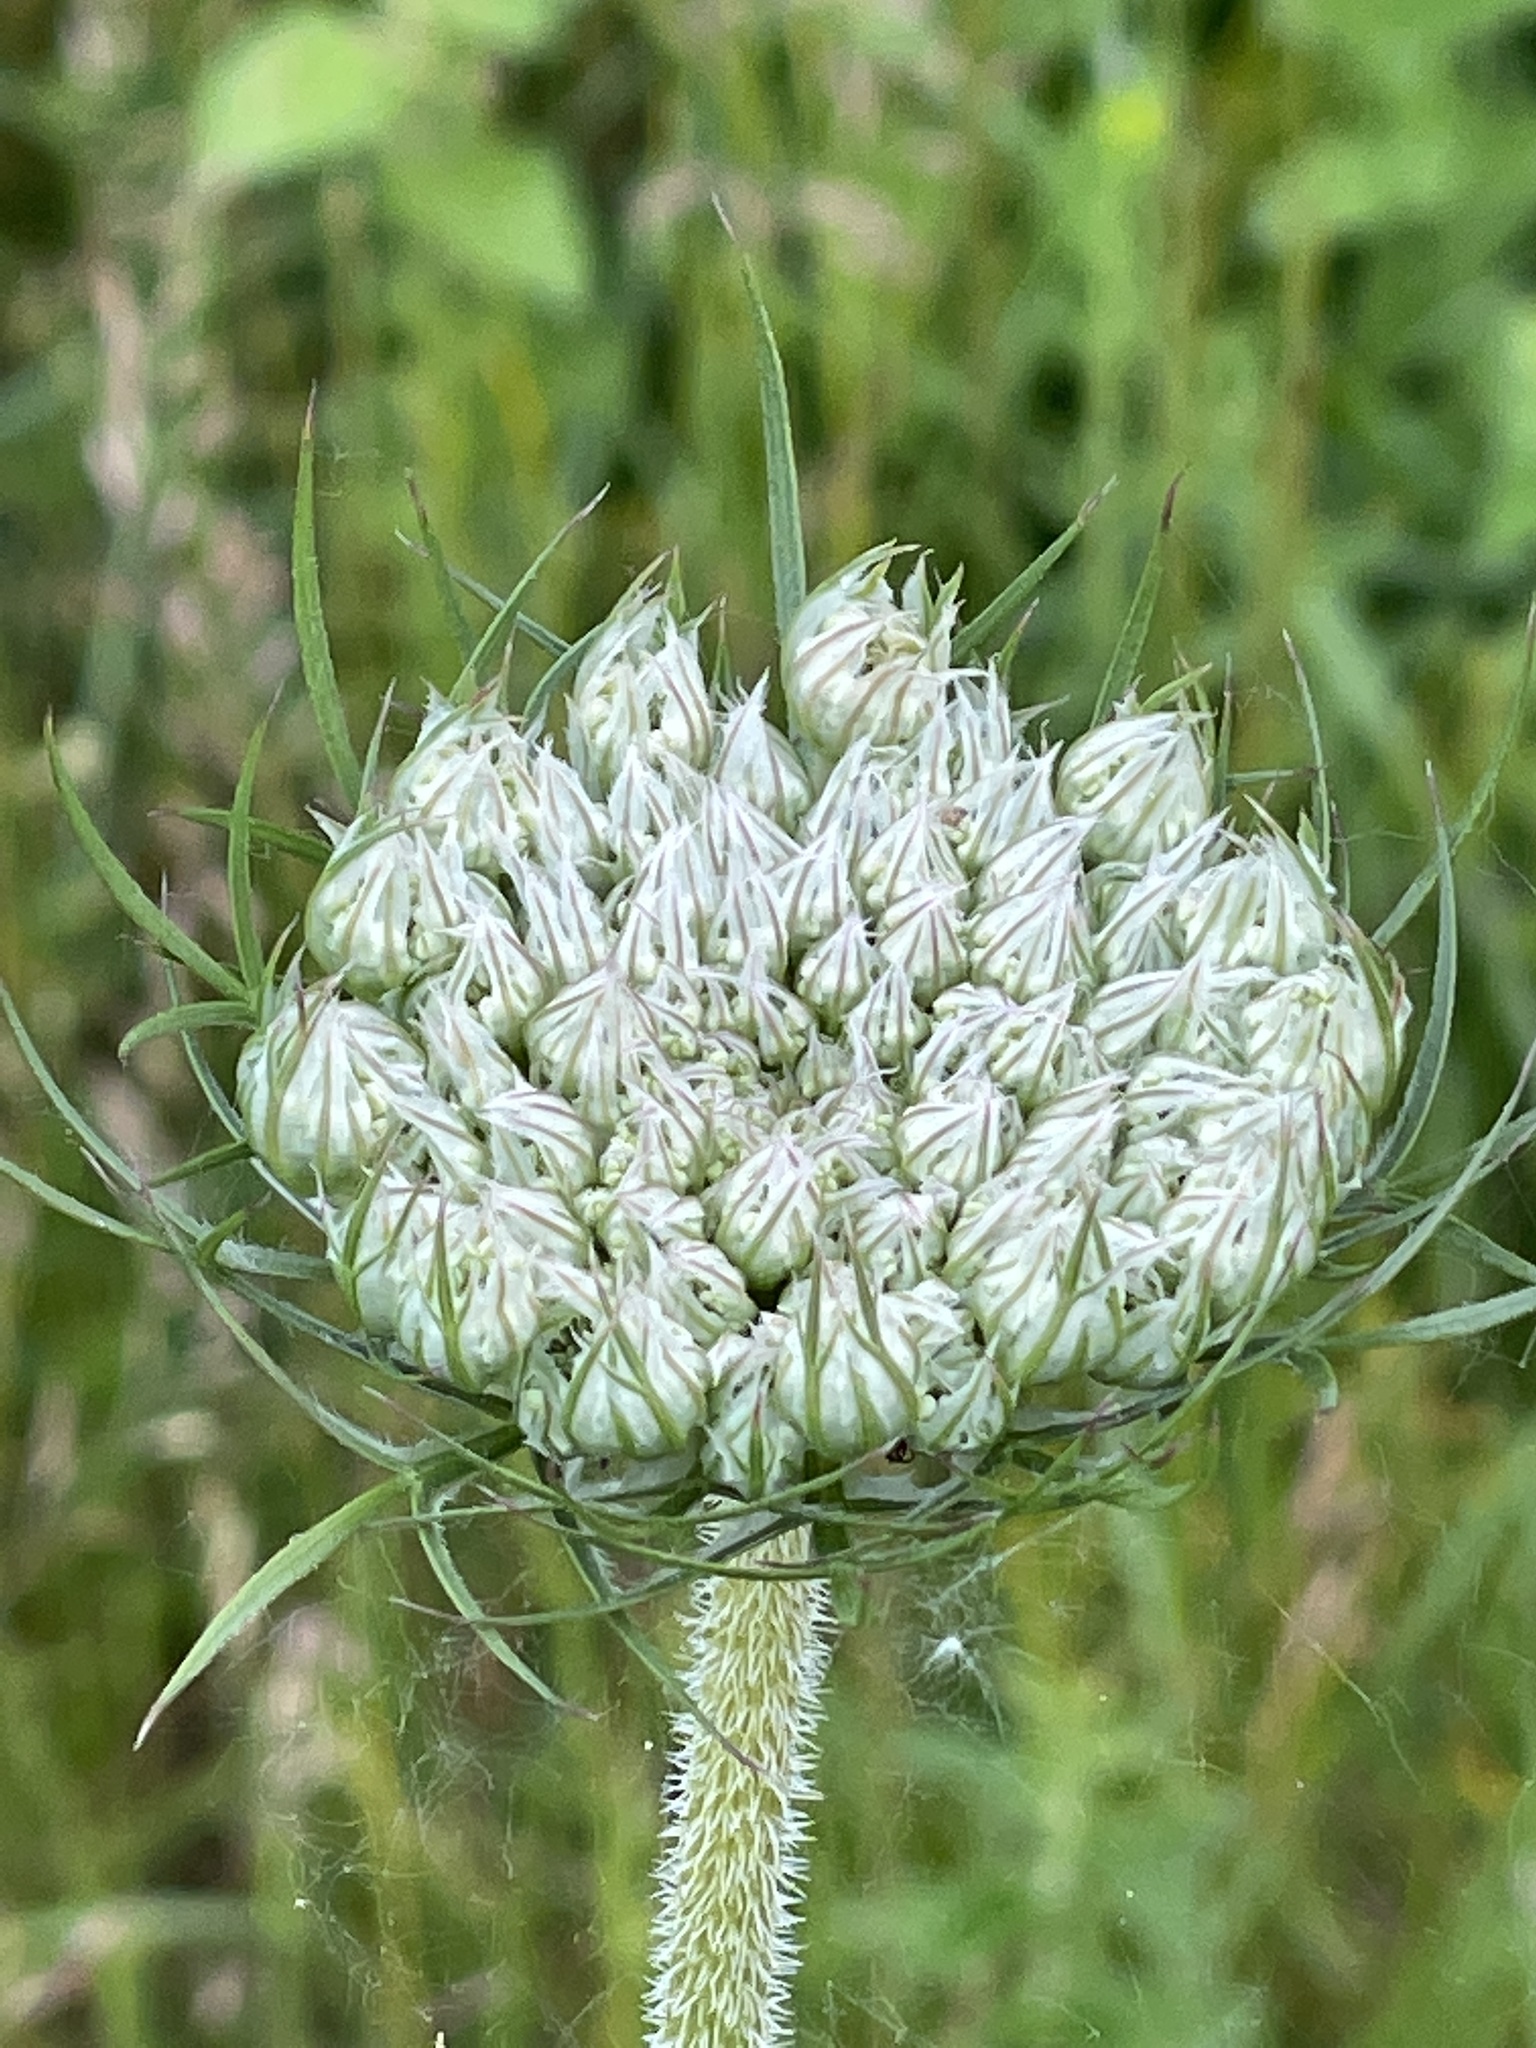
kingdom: Plantae
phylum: Tracheophyta
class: Magnoliopsida
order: Apiales
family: Apiaceae
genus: Daucus
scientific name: Daucus carota
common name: Wild carrot
